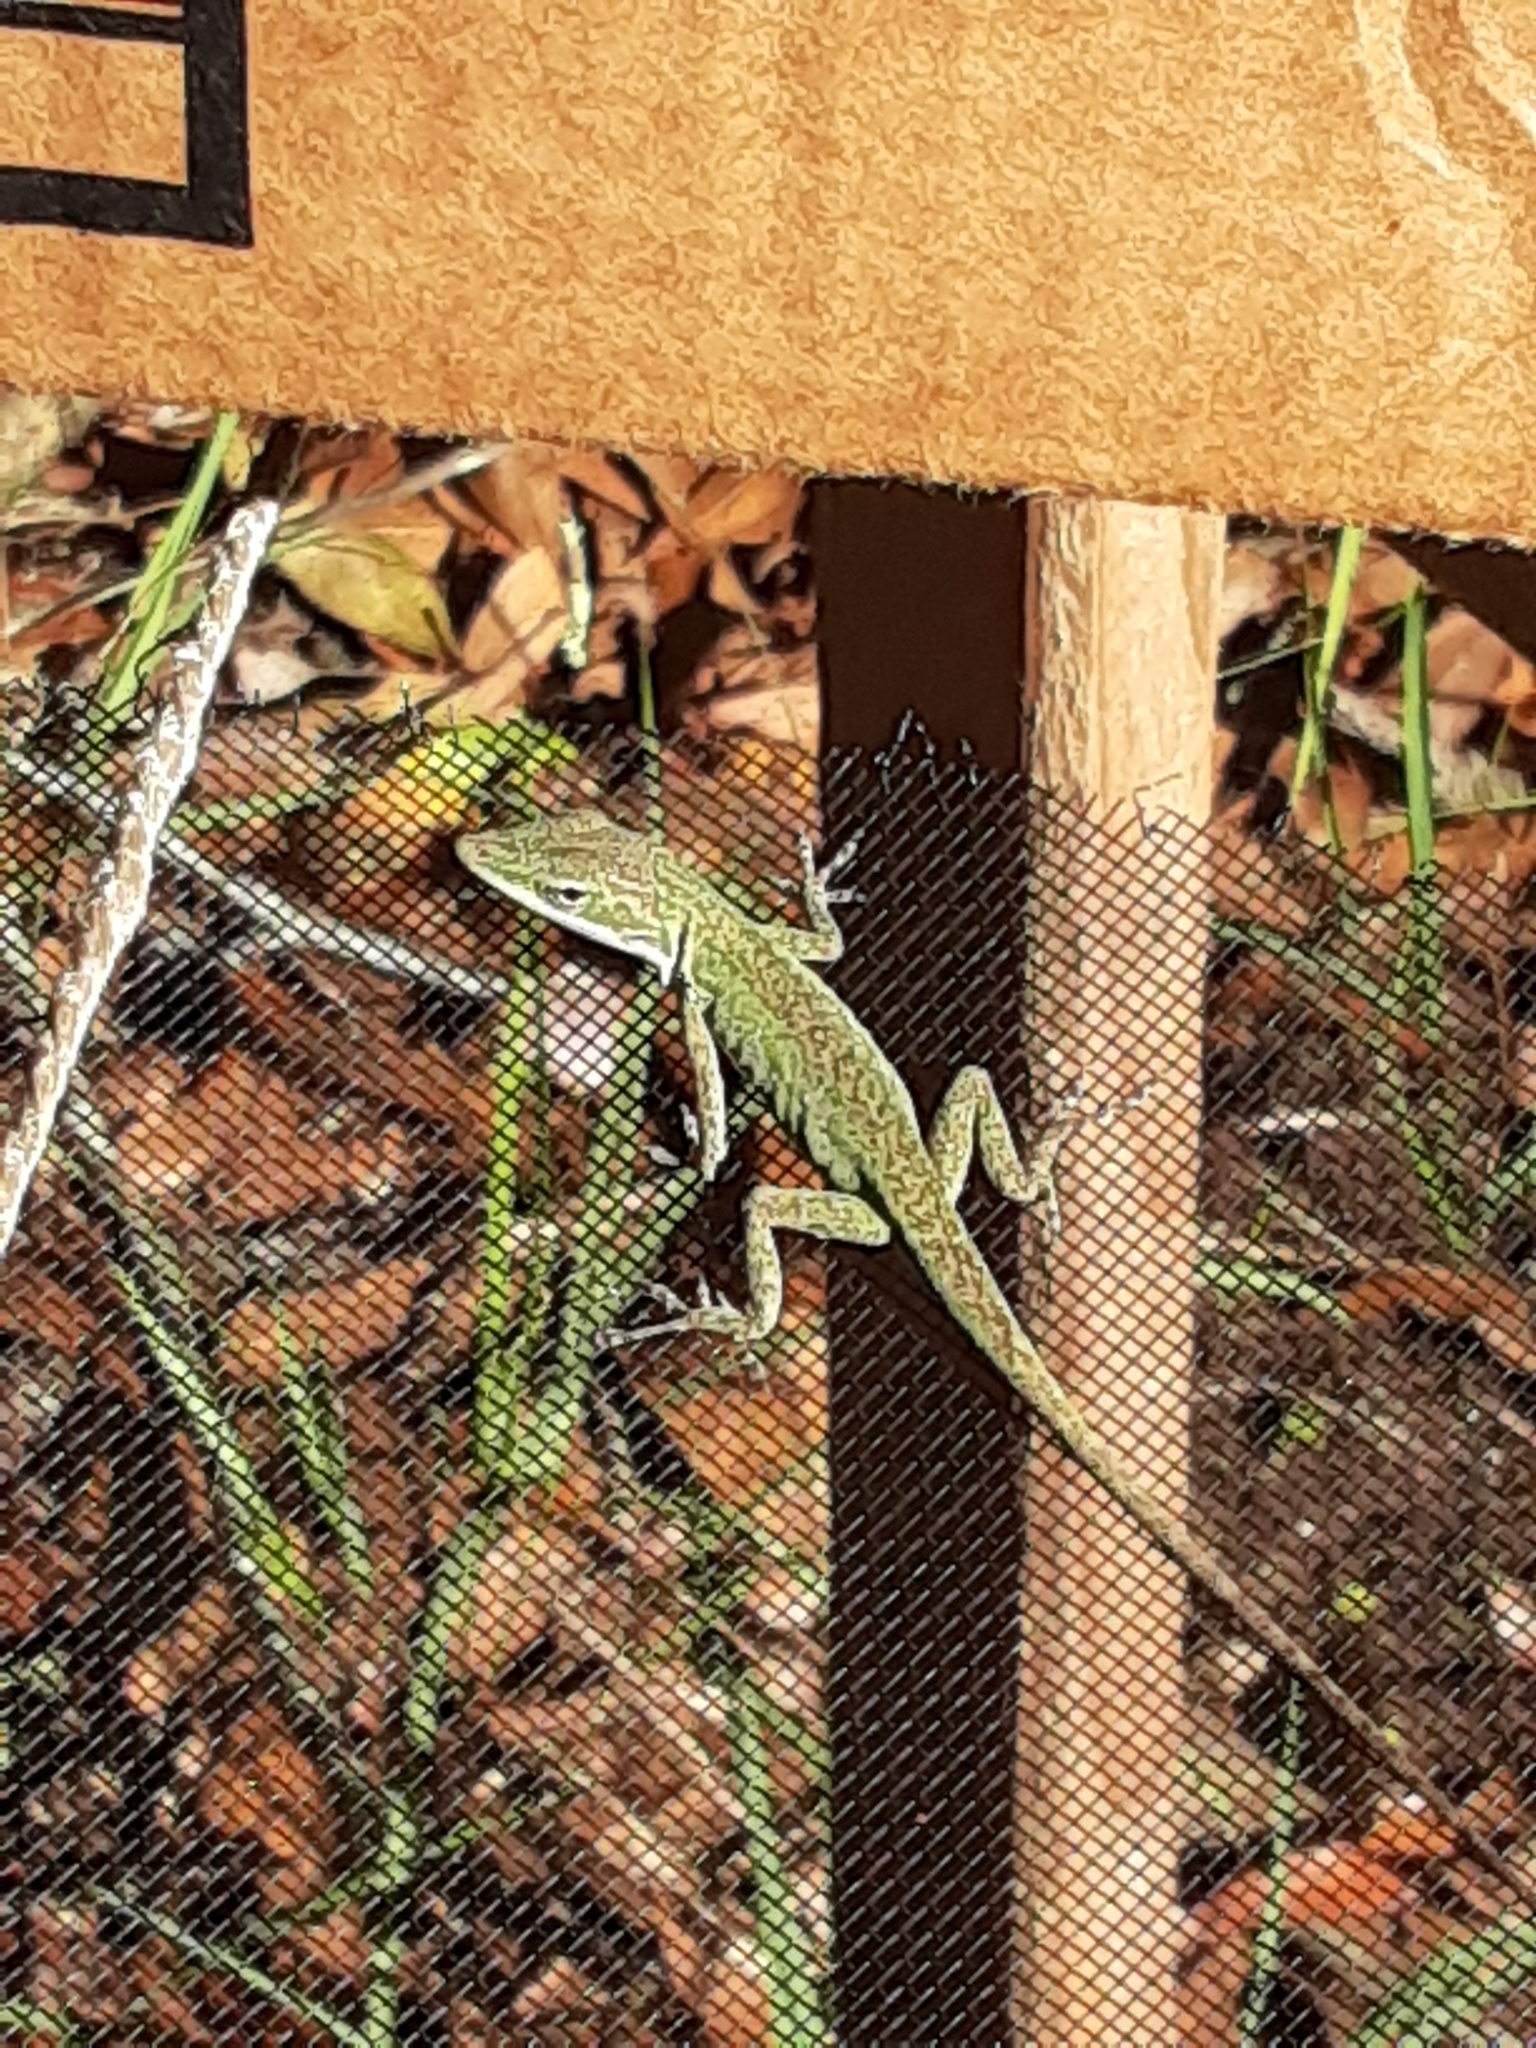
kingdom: Animalia
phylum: Chordata
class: Squamata
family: Dactyloidae
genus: Anolis
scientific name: Anolis carolinensis
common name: Green anole
